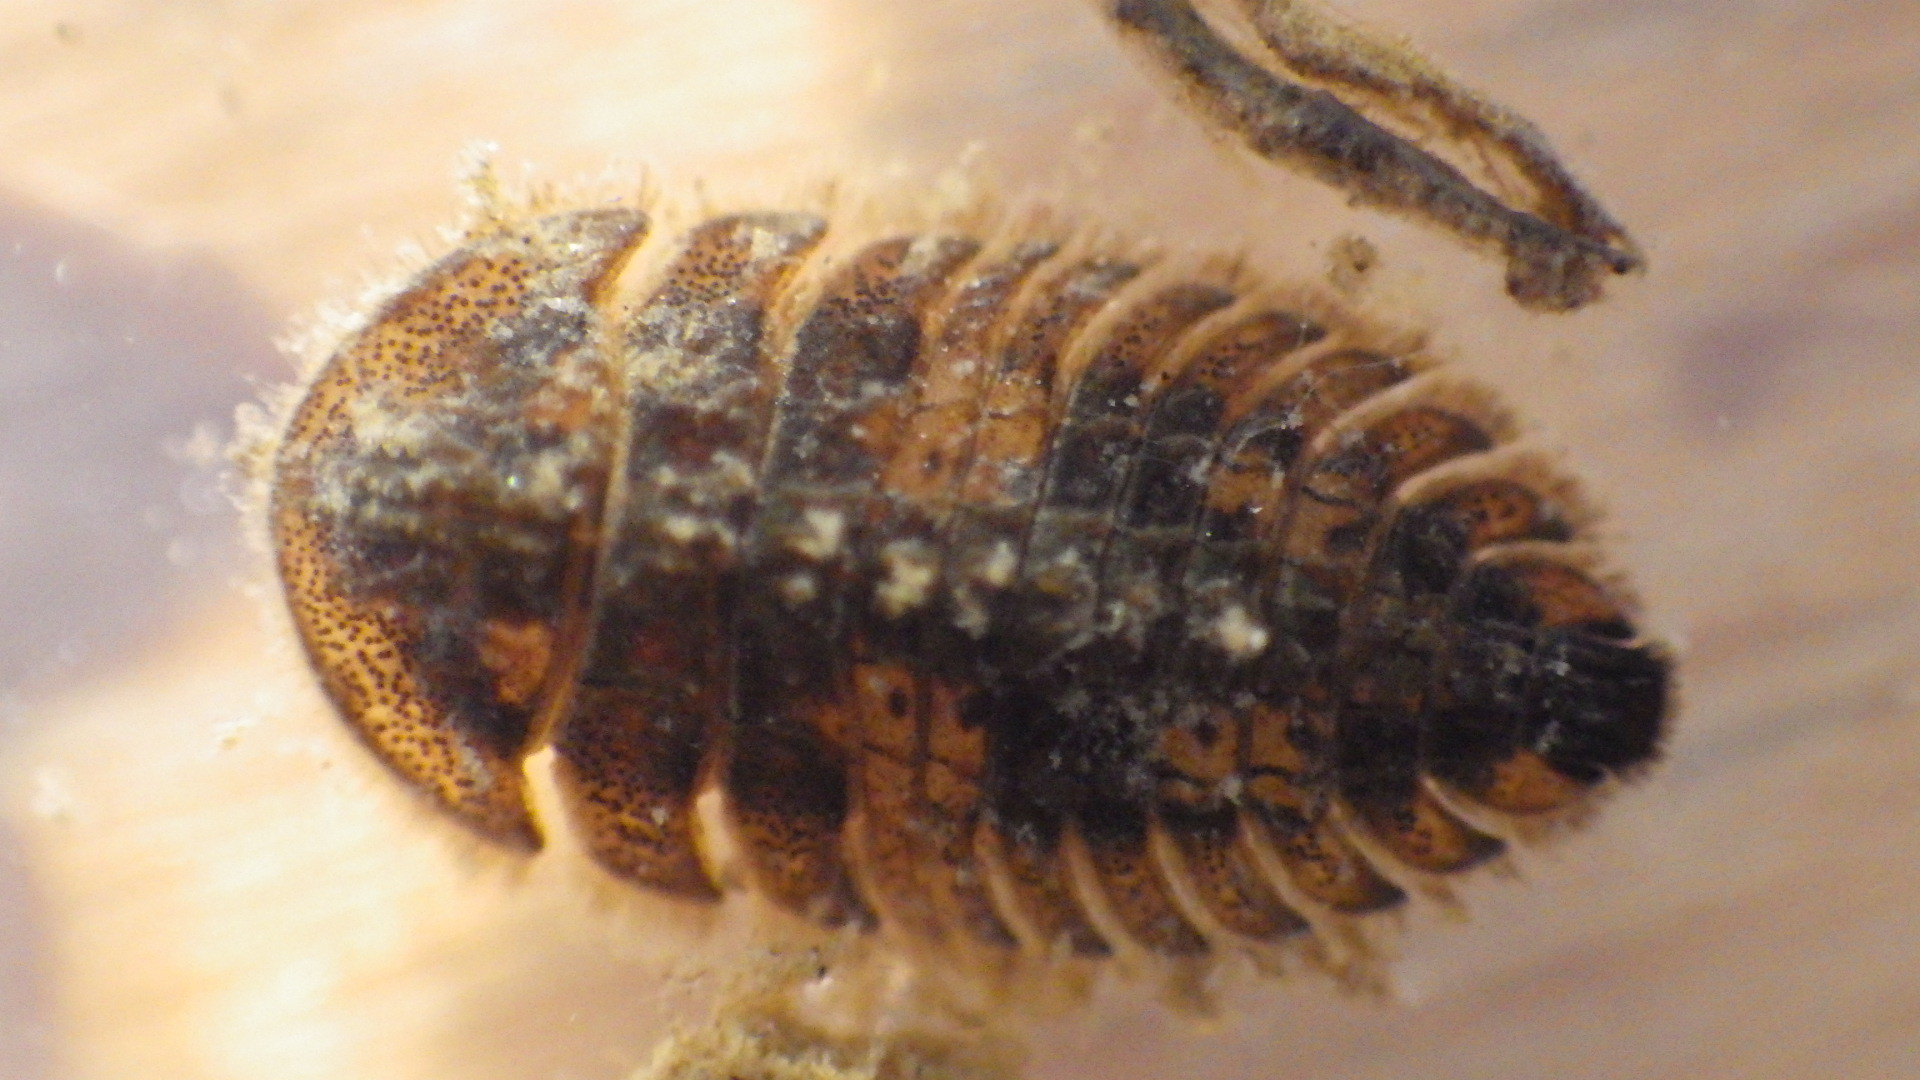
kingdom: Animalia
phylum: Arthropoda
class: Insecta
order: Coleoptera
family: Psephenidae
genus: Ectopria
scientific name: Ectopria nervosa
